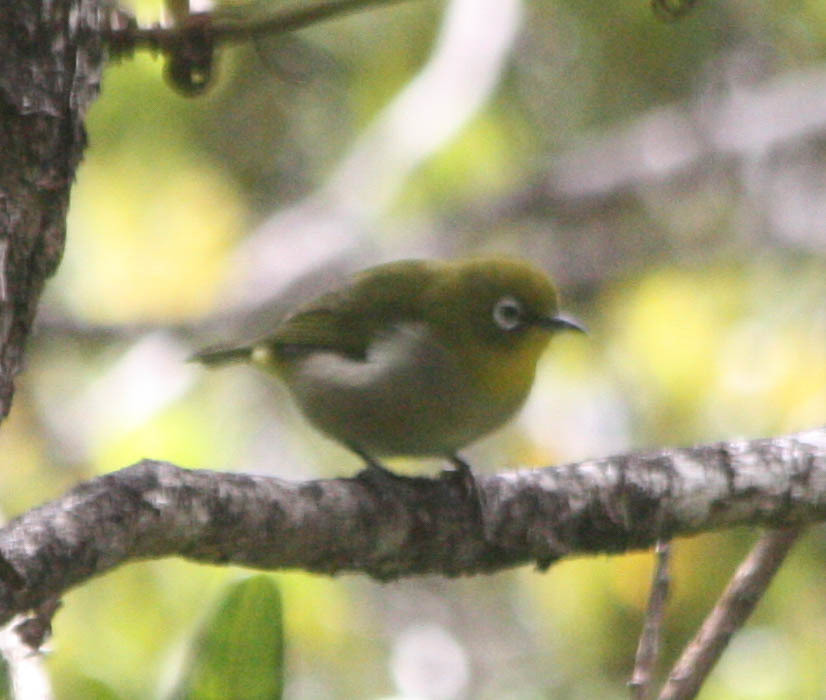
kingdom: Animalia
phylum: Chordata
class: Aves
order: Passeriformes
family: Zosteropidae
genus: Zosterops
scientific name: Zosterops japonicus
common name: Japanese white-eye
